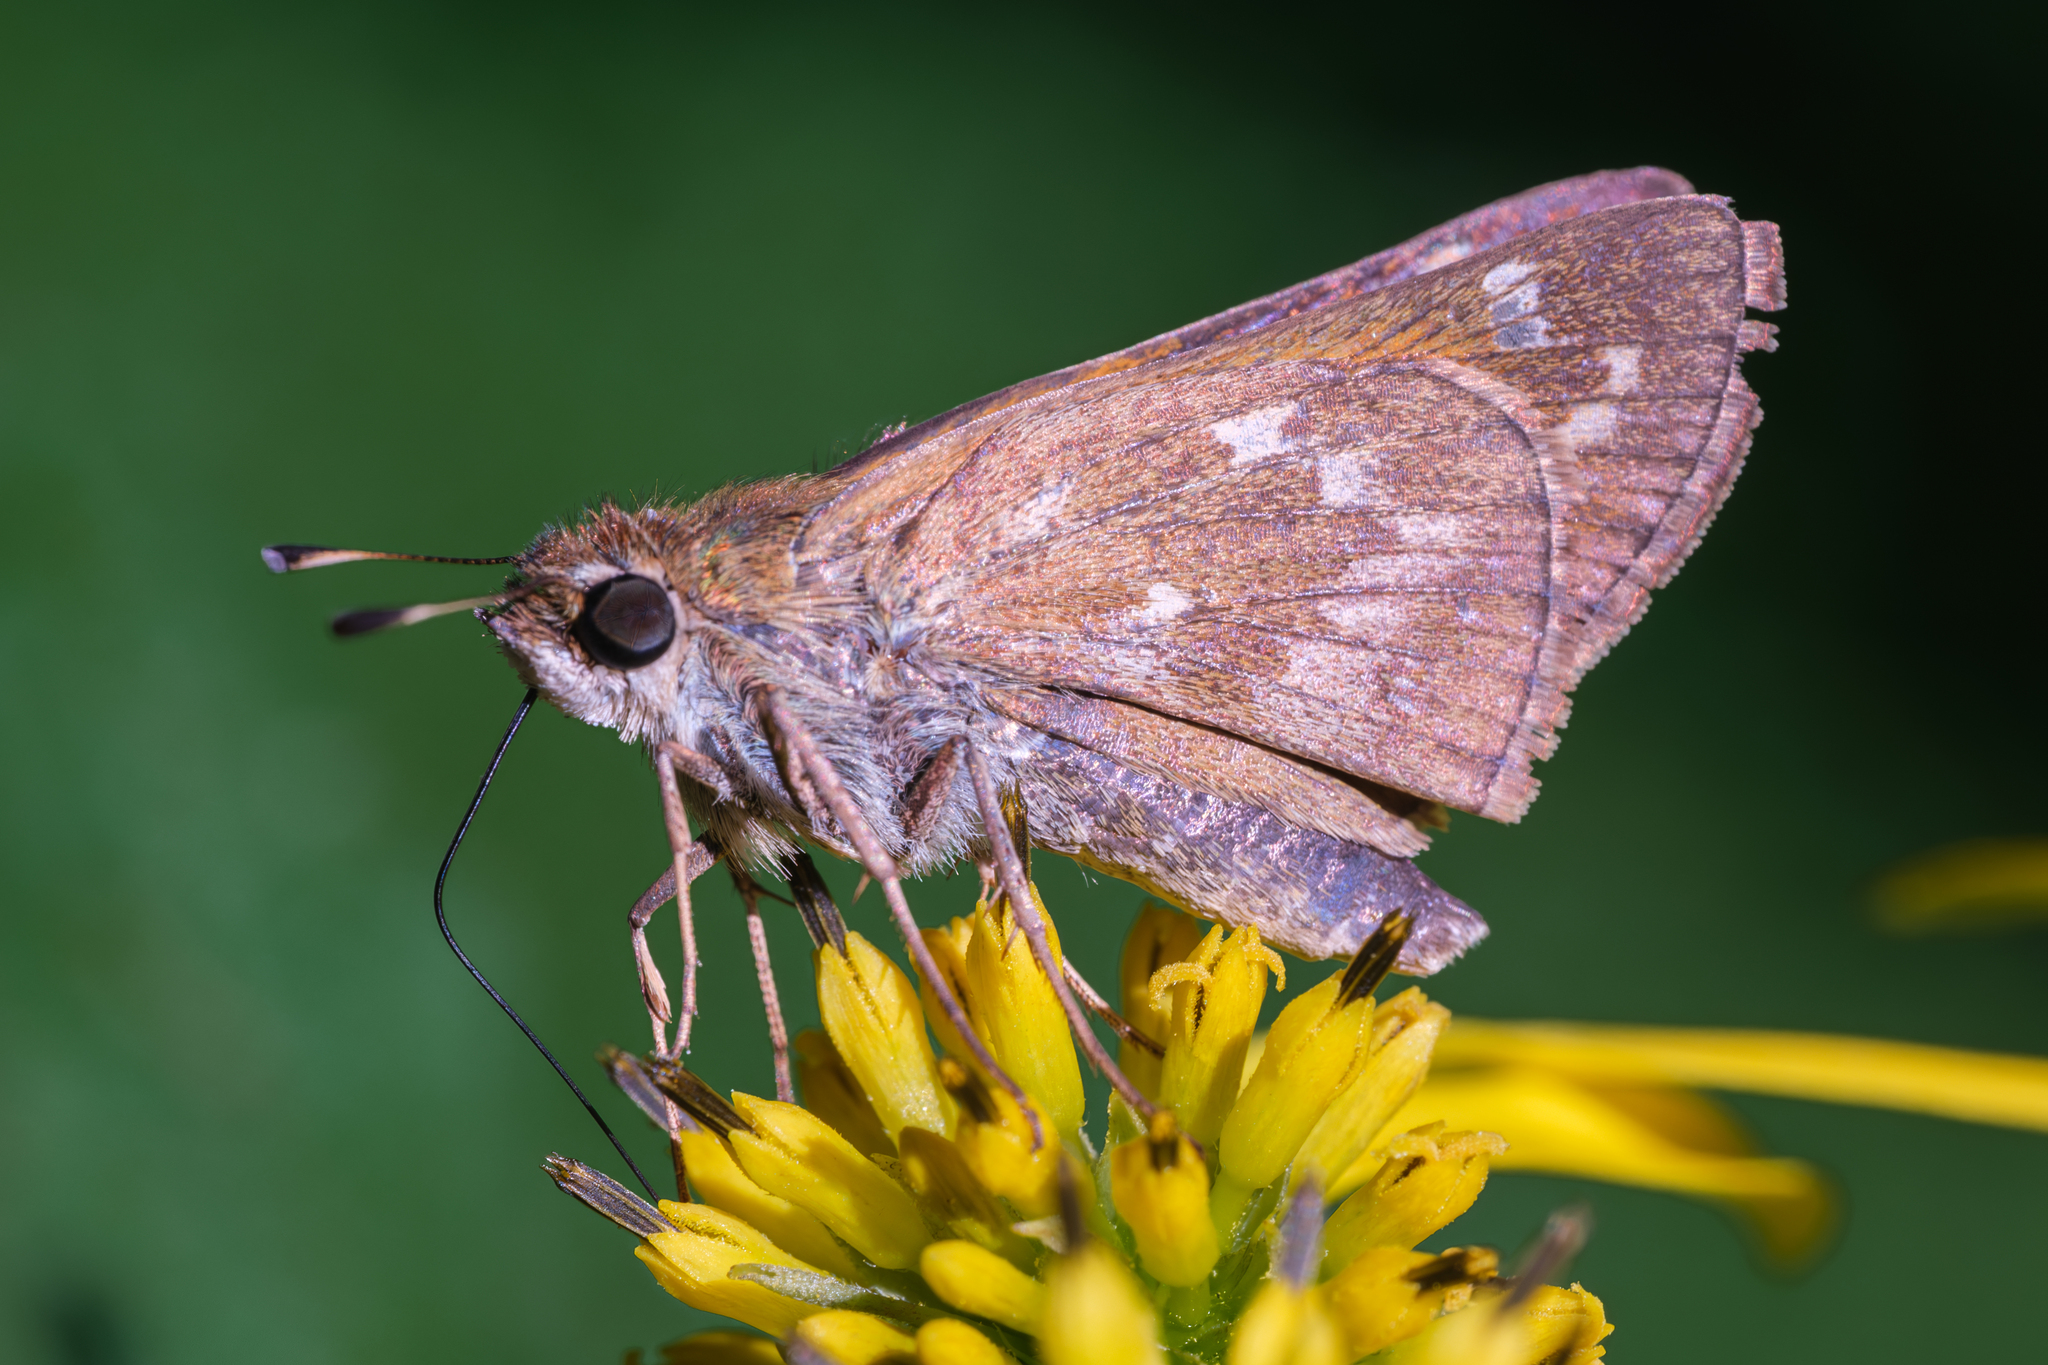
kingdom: Animalia
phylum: Arthropoda
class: Insecta
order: Lepidoptera
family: Hesperiidae
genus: Atalopedes
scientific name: Atalopedes
